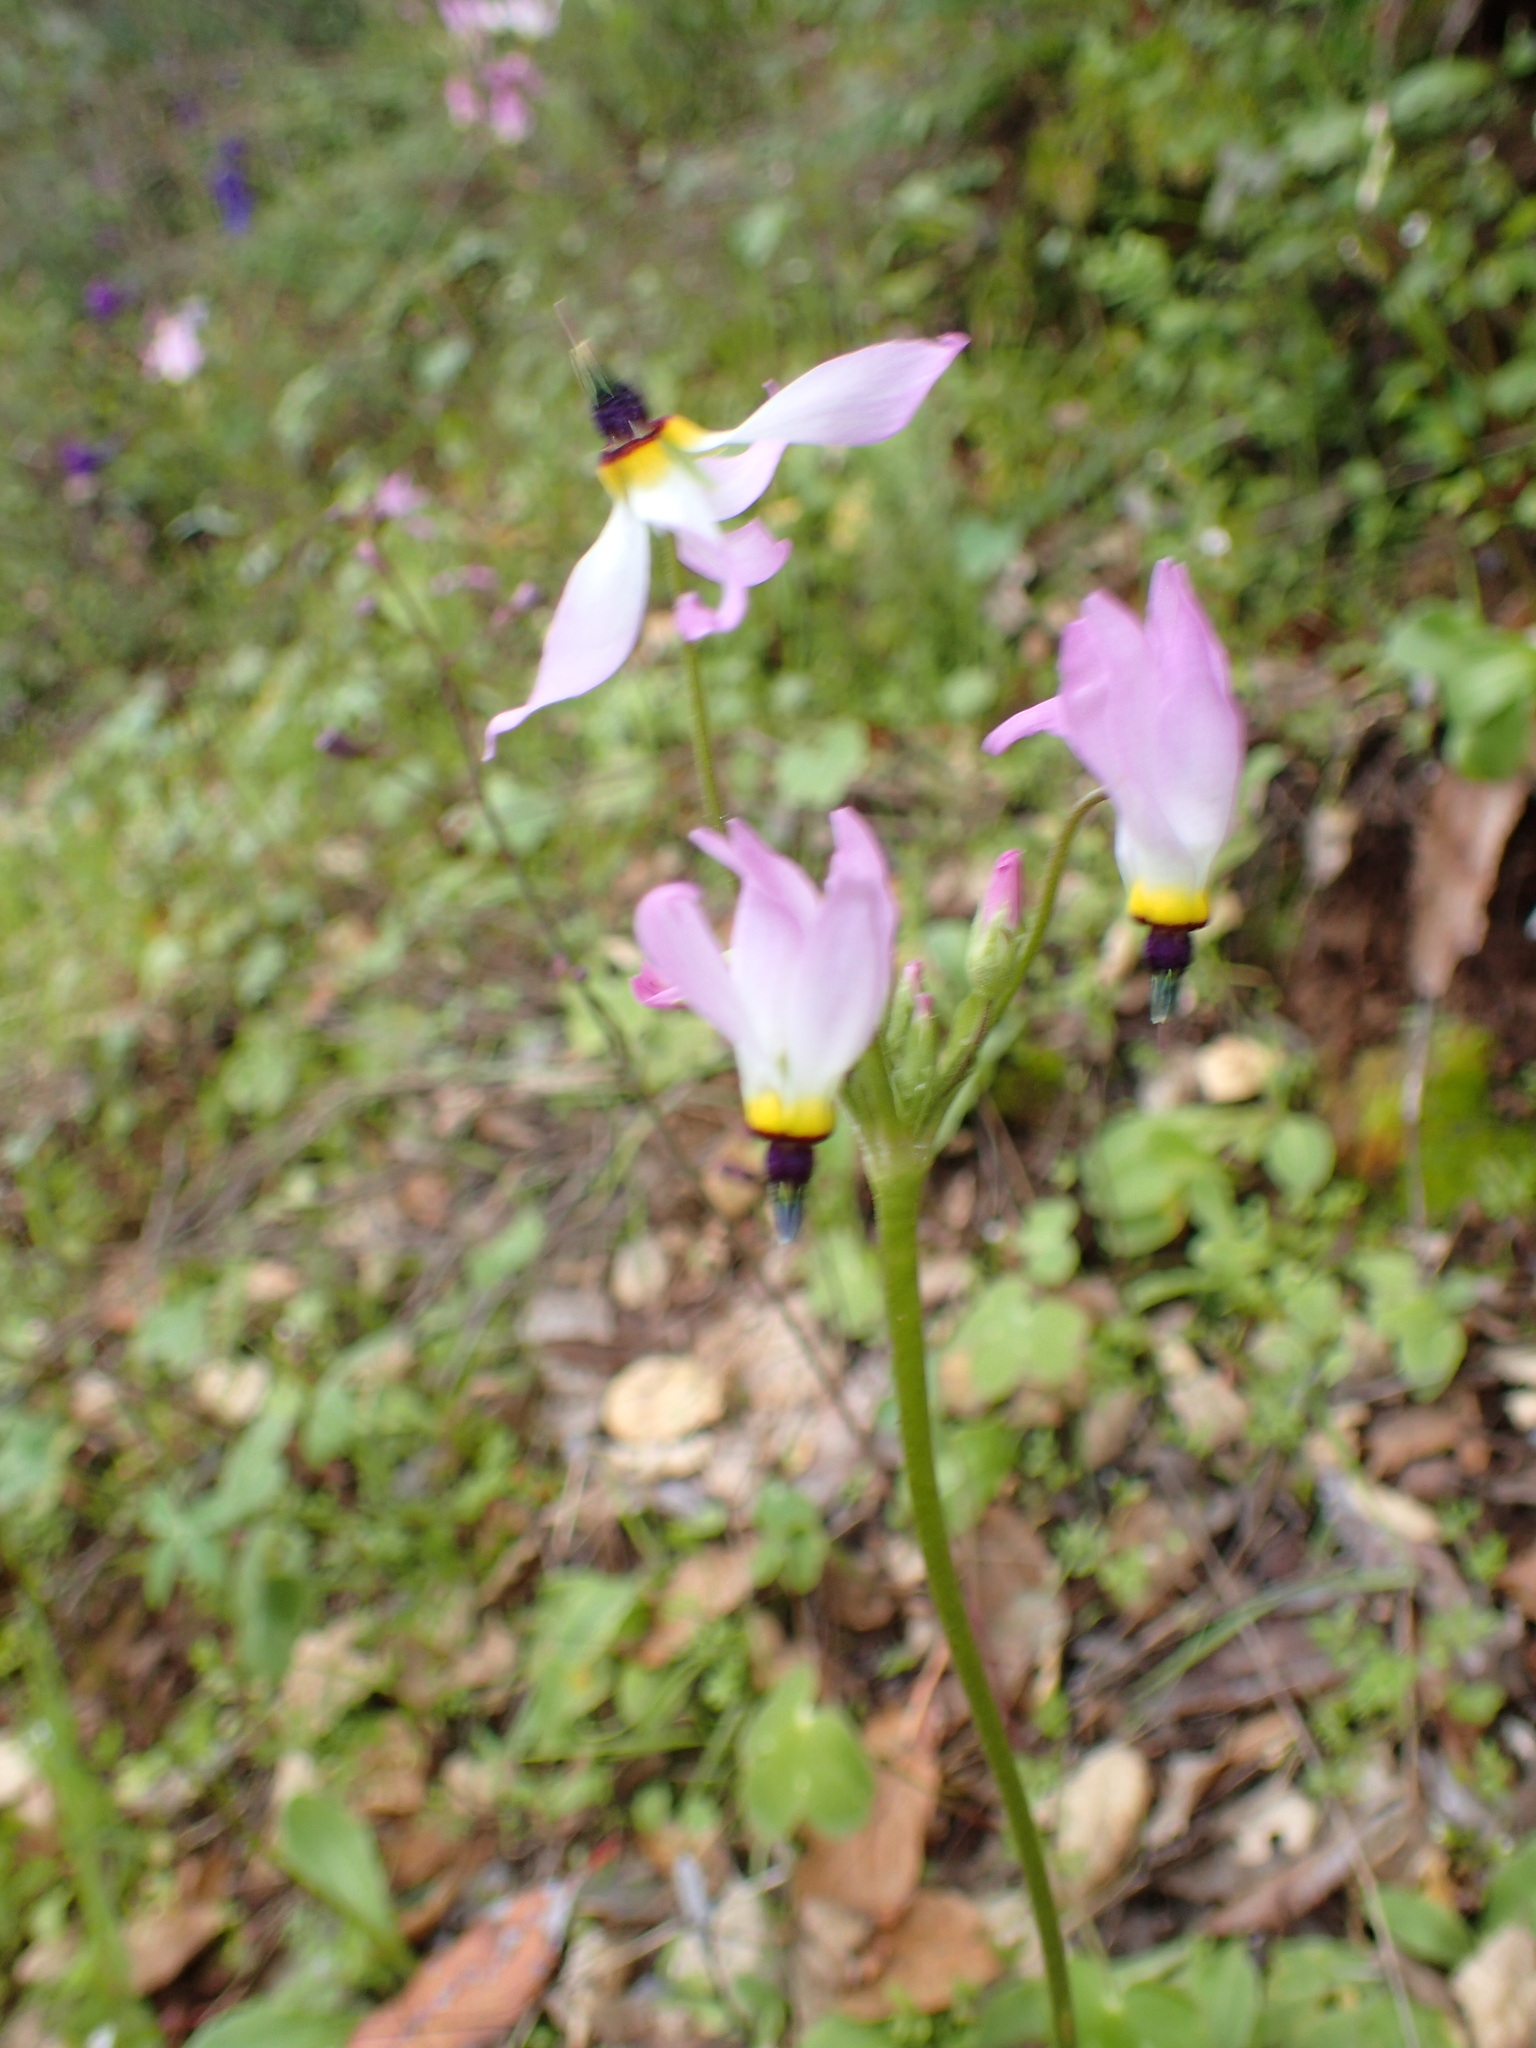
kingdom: Plantae
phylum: Tracheophyta
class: Magnoliopsida
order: Ericales
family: Primulaceae
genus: Dodecatheon
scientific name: Dodecatheon clevelandii
